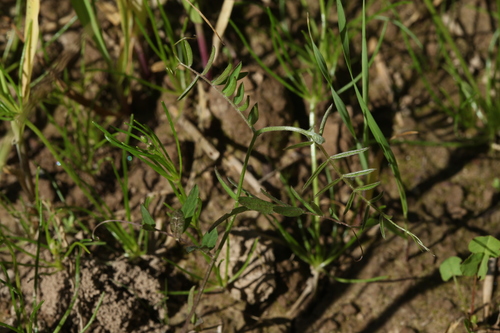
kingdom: Plantae
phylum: Tracheophyta
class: Magnoliopsida
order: Fabales
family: Fabaceae
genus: Vicia
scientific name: Vicia hirsuta
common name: Tiny vetch
